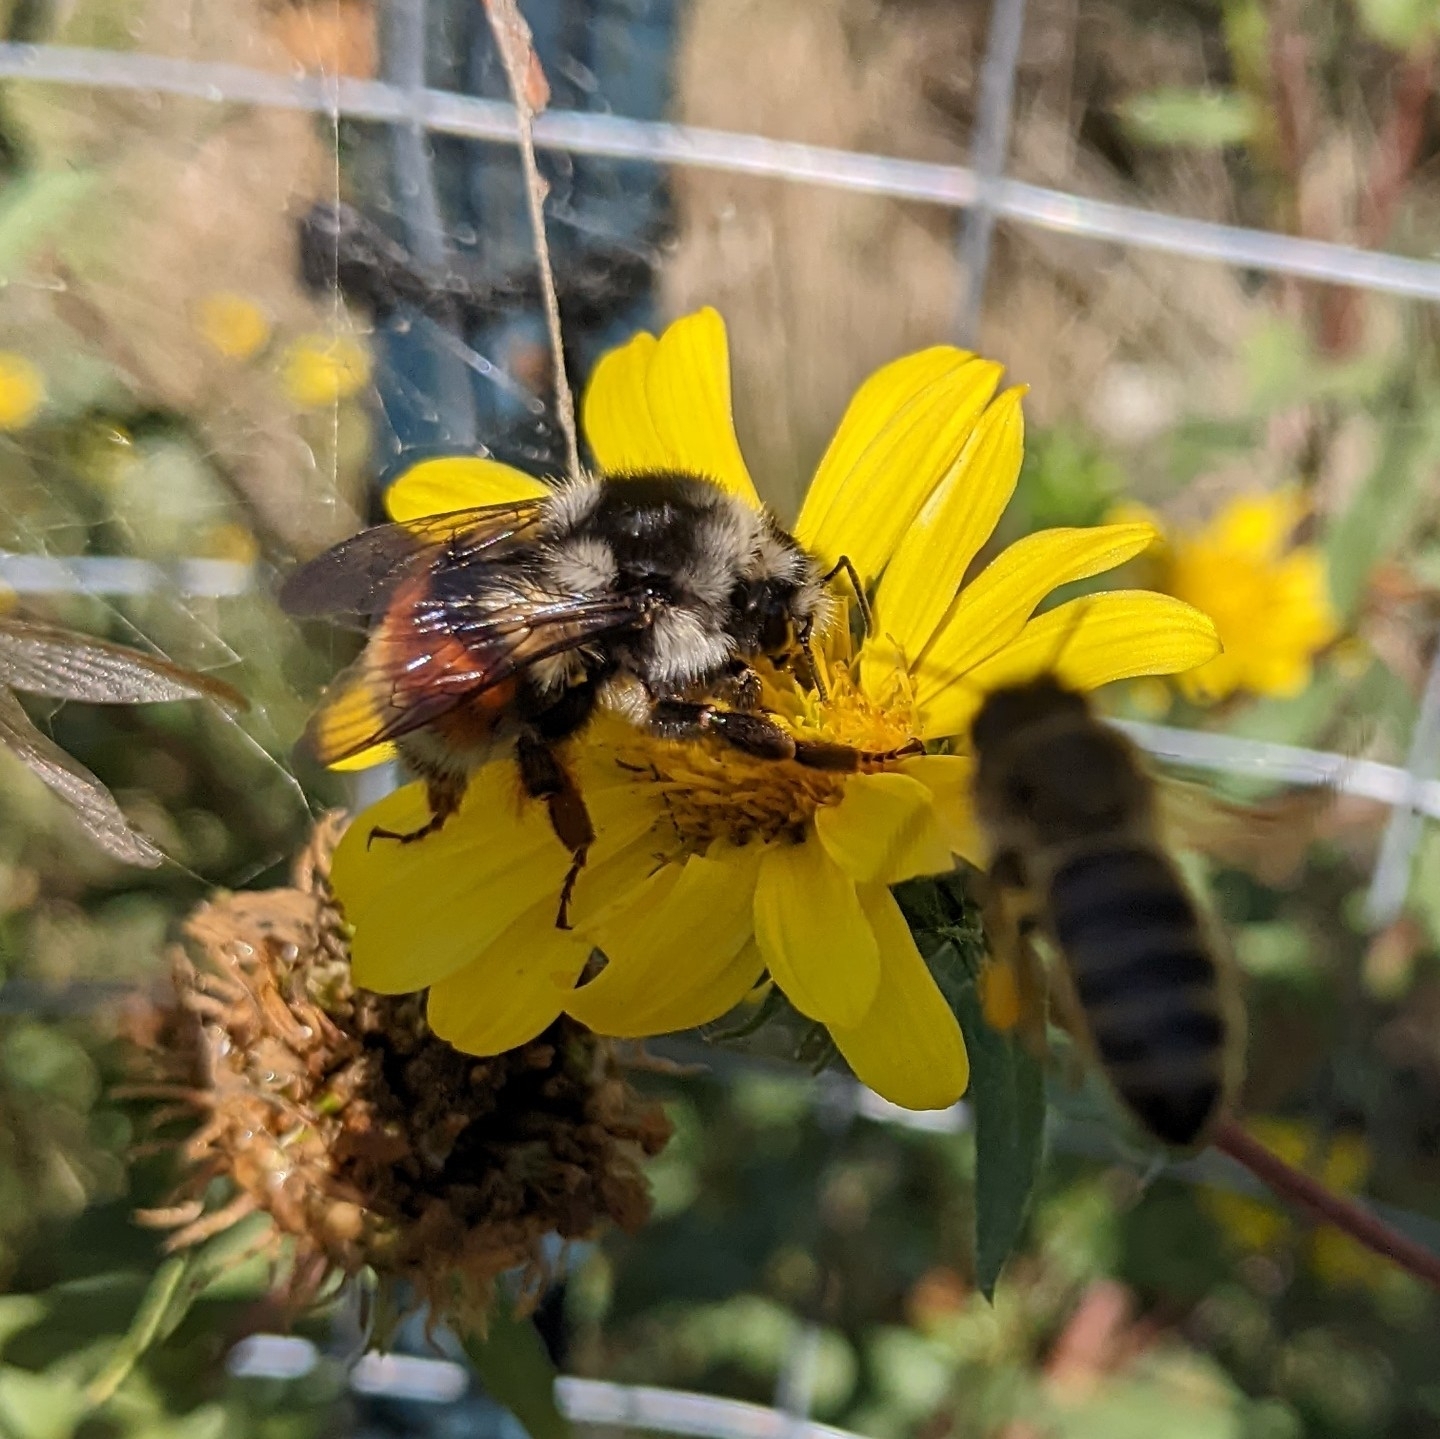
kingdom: Animalia
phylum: Arthropoda
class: Insecta
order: Hymenoptera
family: Apidae
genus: Bombus
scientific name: Bombus vancouverensis
